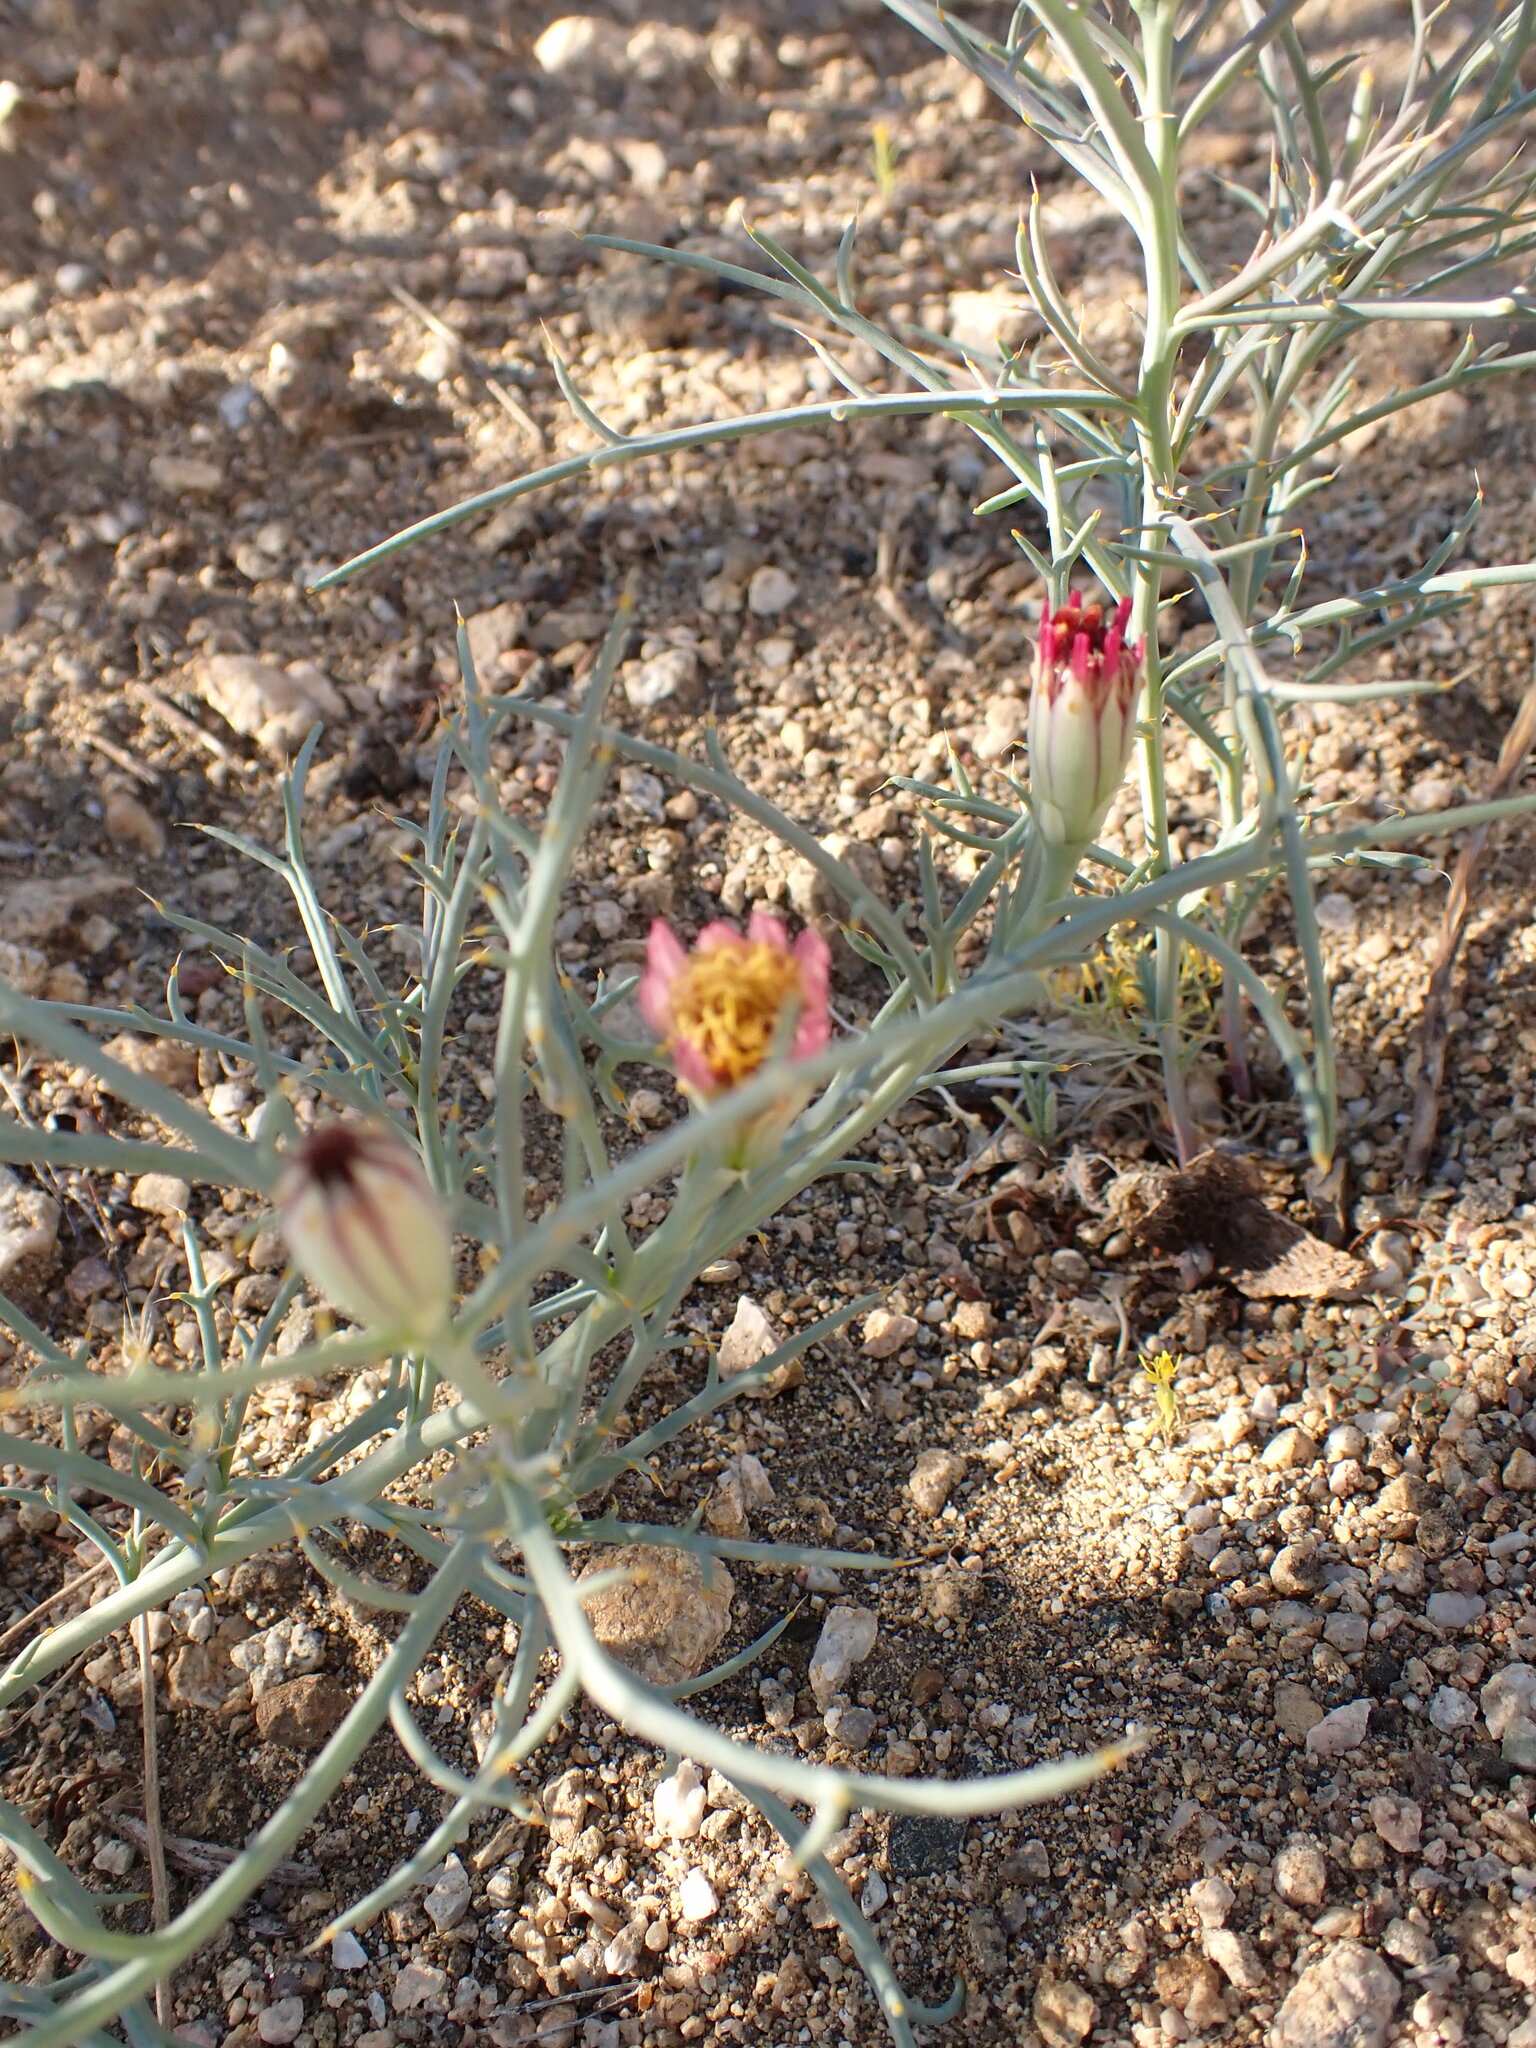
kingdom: Plantae
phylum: Tracheophyta
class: Magnoliopsida
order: Asterales
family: Asteraceae
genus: Nicolletia
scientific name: Nicolletia occidentalis
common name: Hole-in-the-sand-plant
